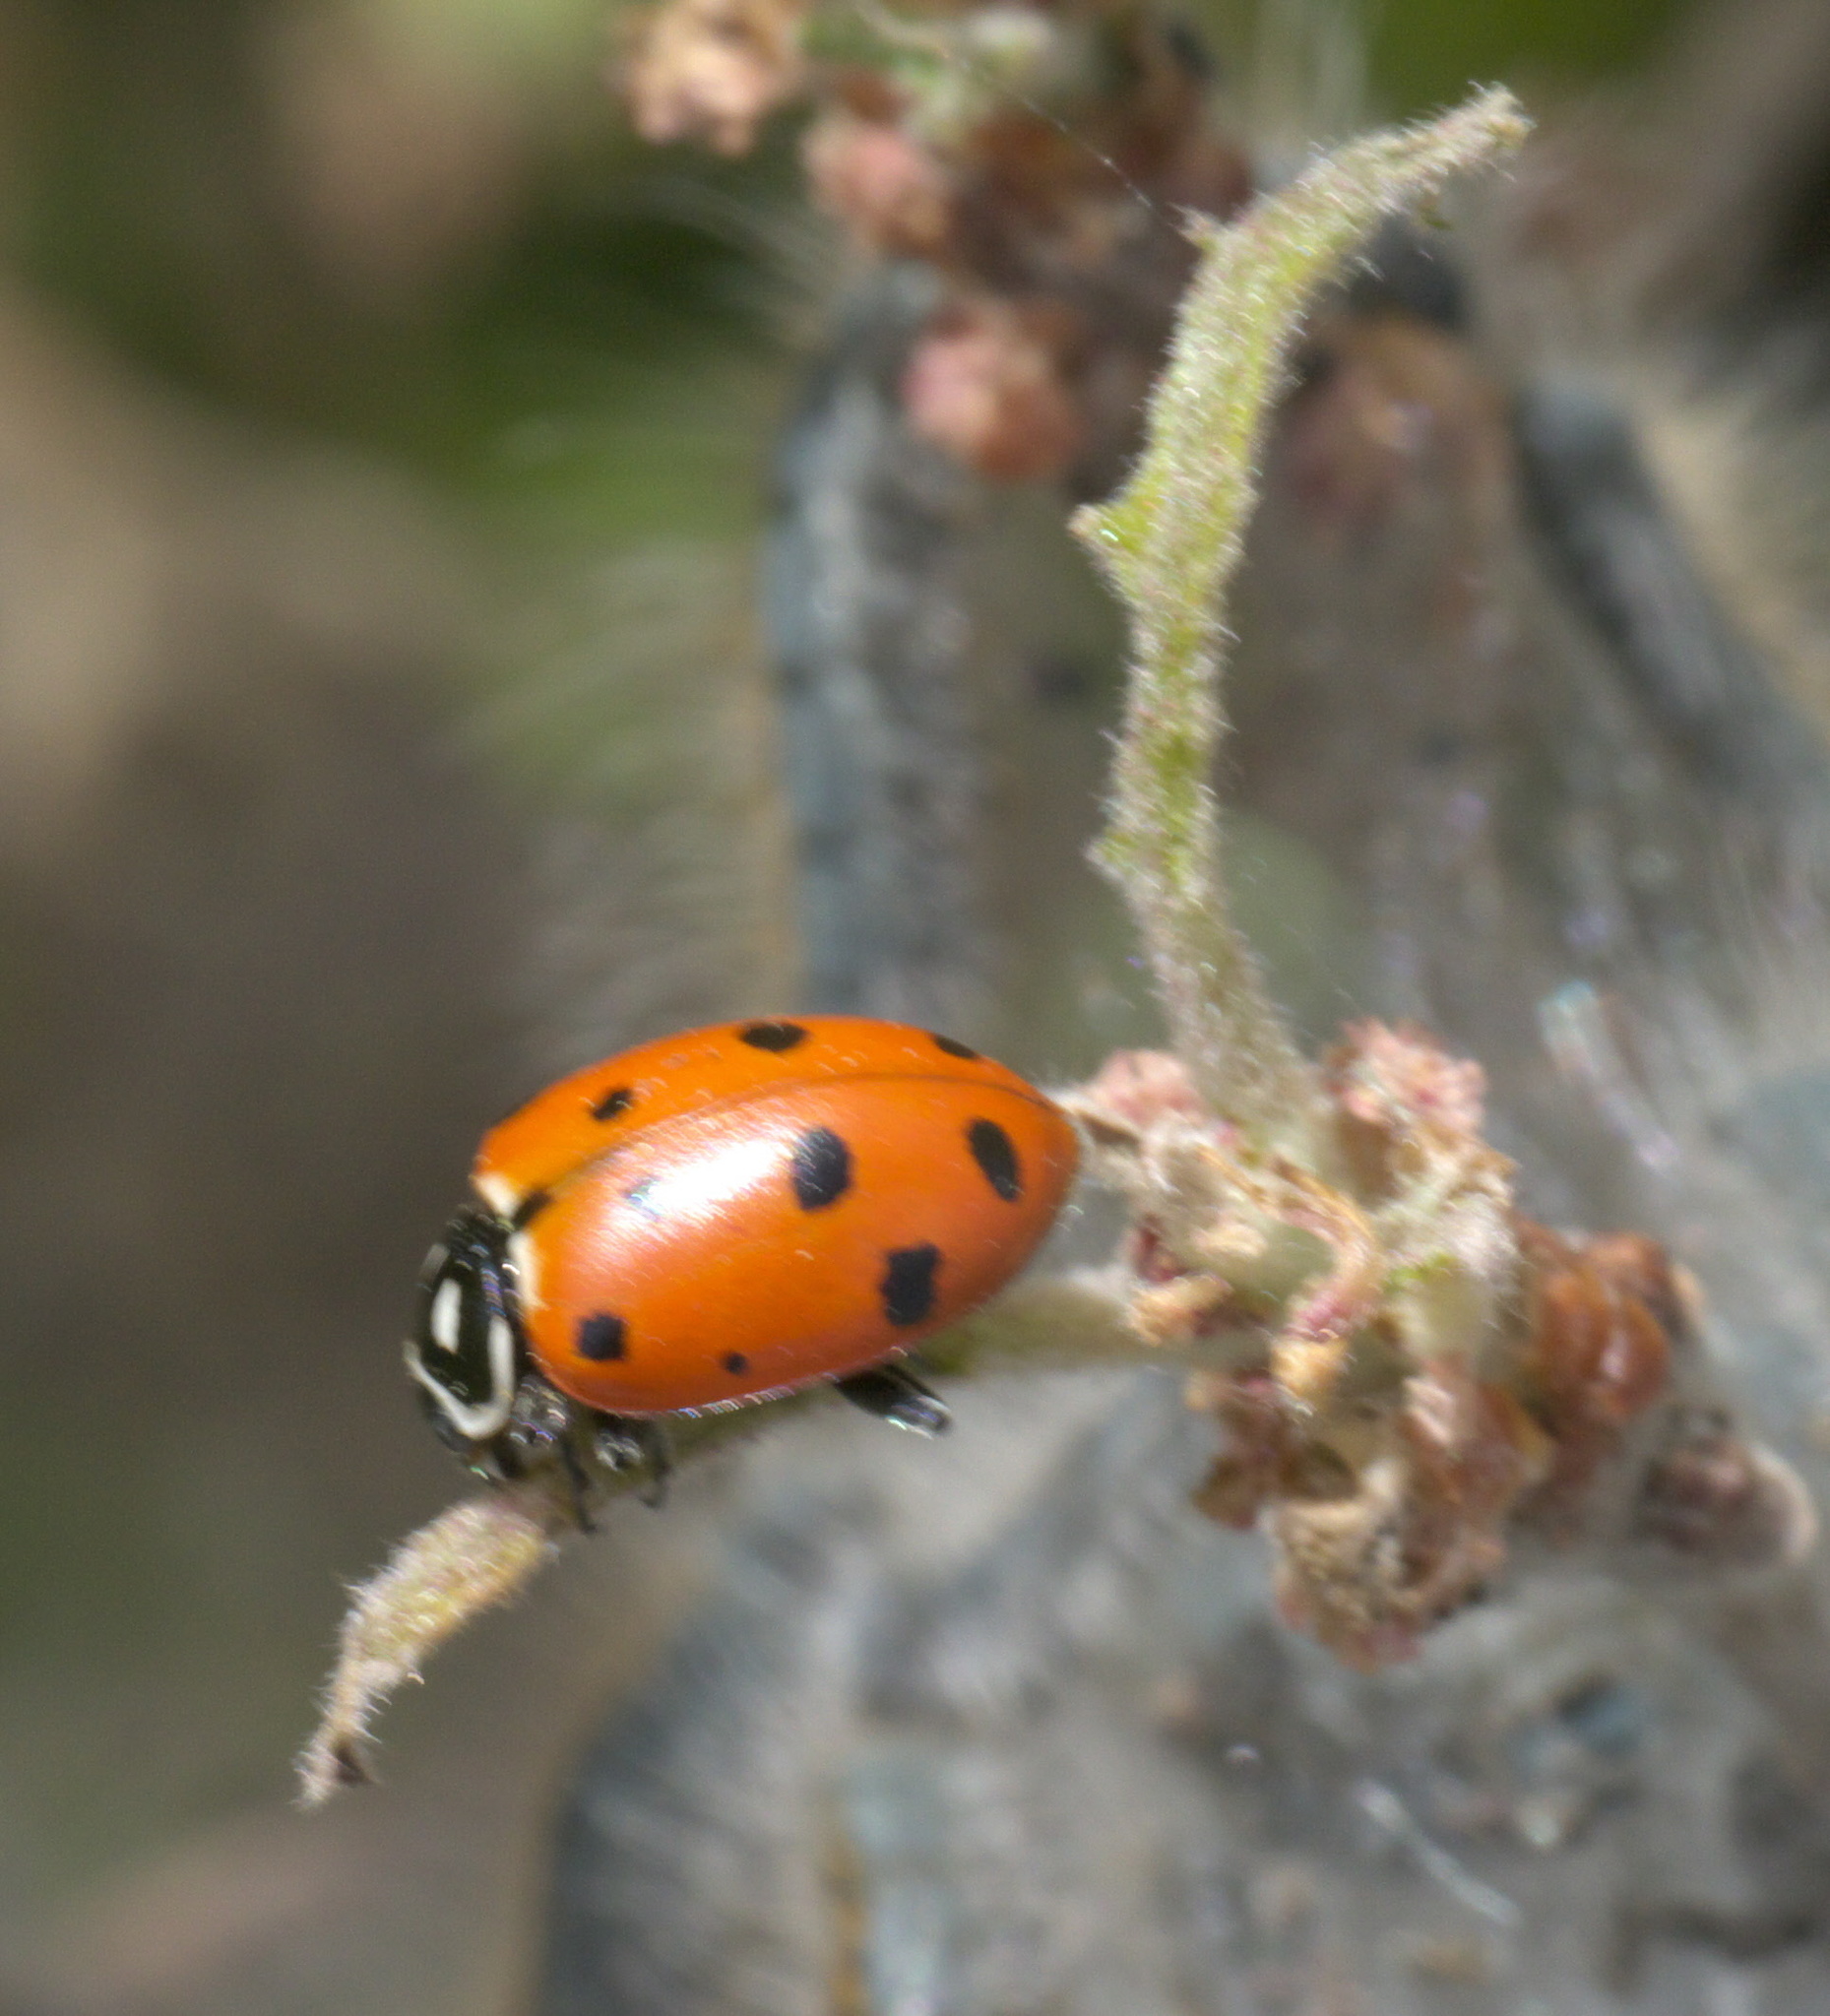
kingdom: Animalia
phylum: Arthropoda
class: Insecta
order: Coleoptera
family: Coccinellidae
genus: Hippodamia
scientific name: Hippodamia convergens
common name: Convergent lady beetle
